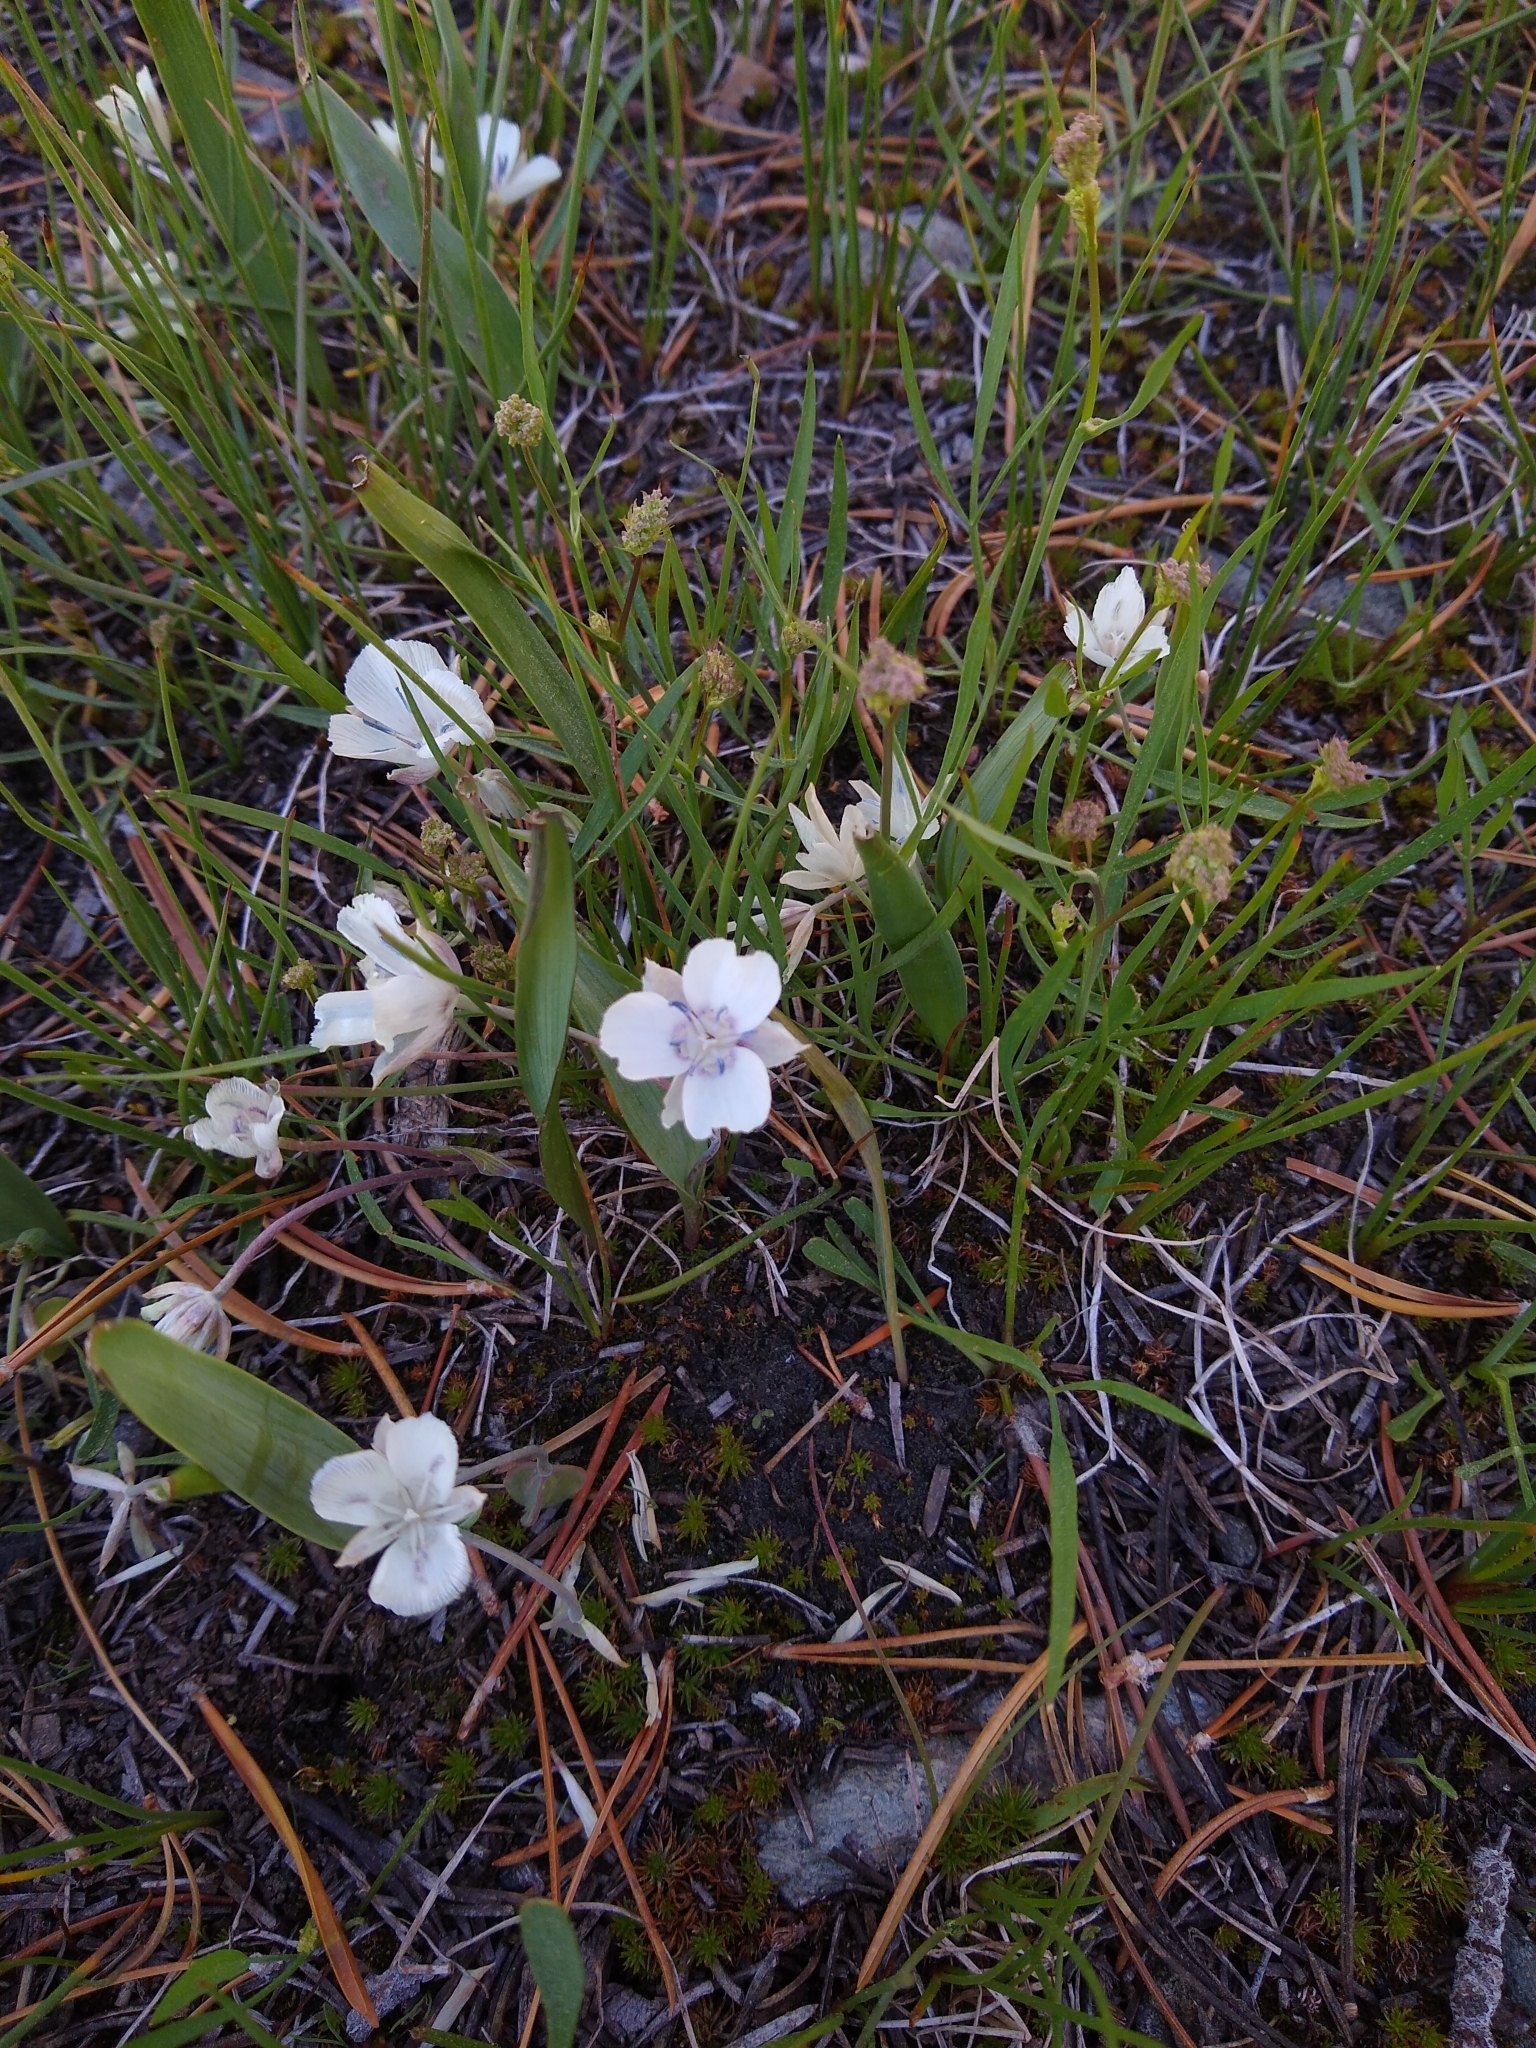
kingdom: Plantae
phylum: Tracheophyta
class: Liliopsida
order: Liliales
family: Liliaceae
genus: Calochortus
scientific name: Calochortus minimus
